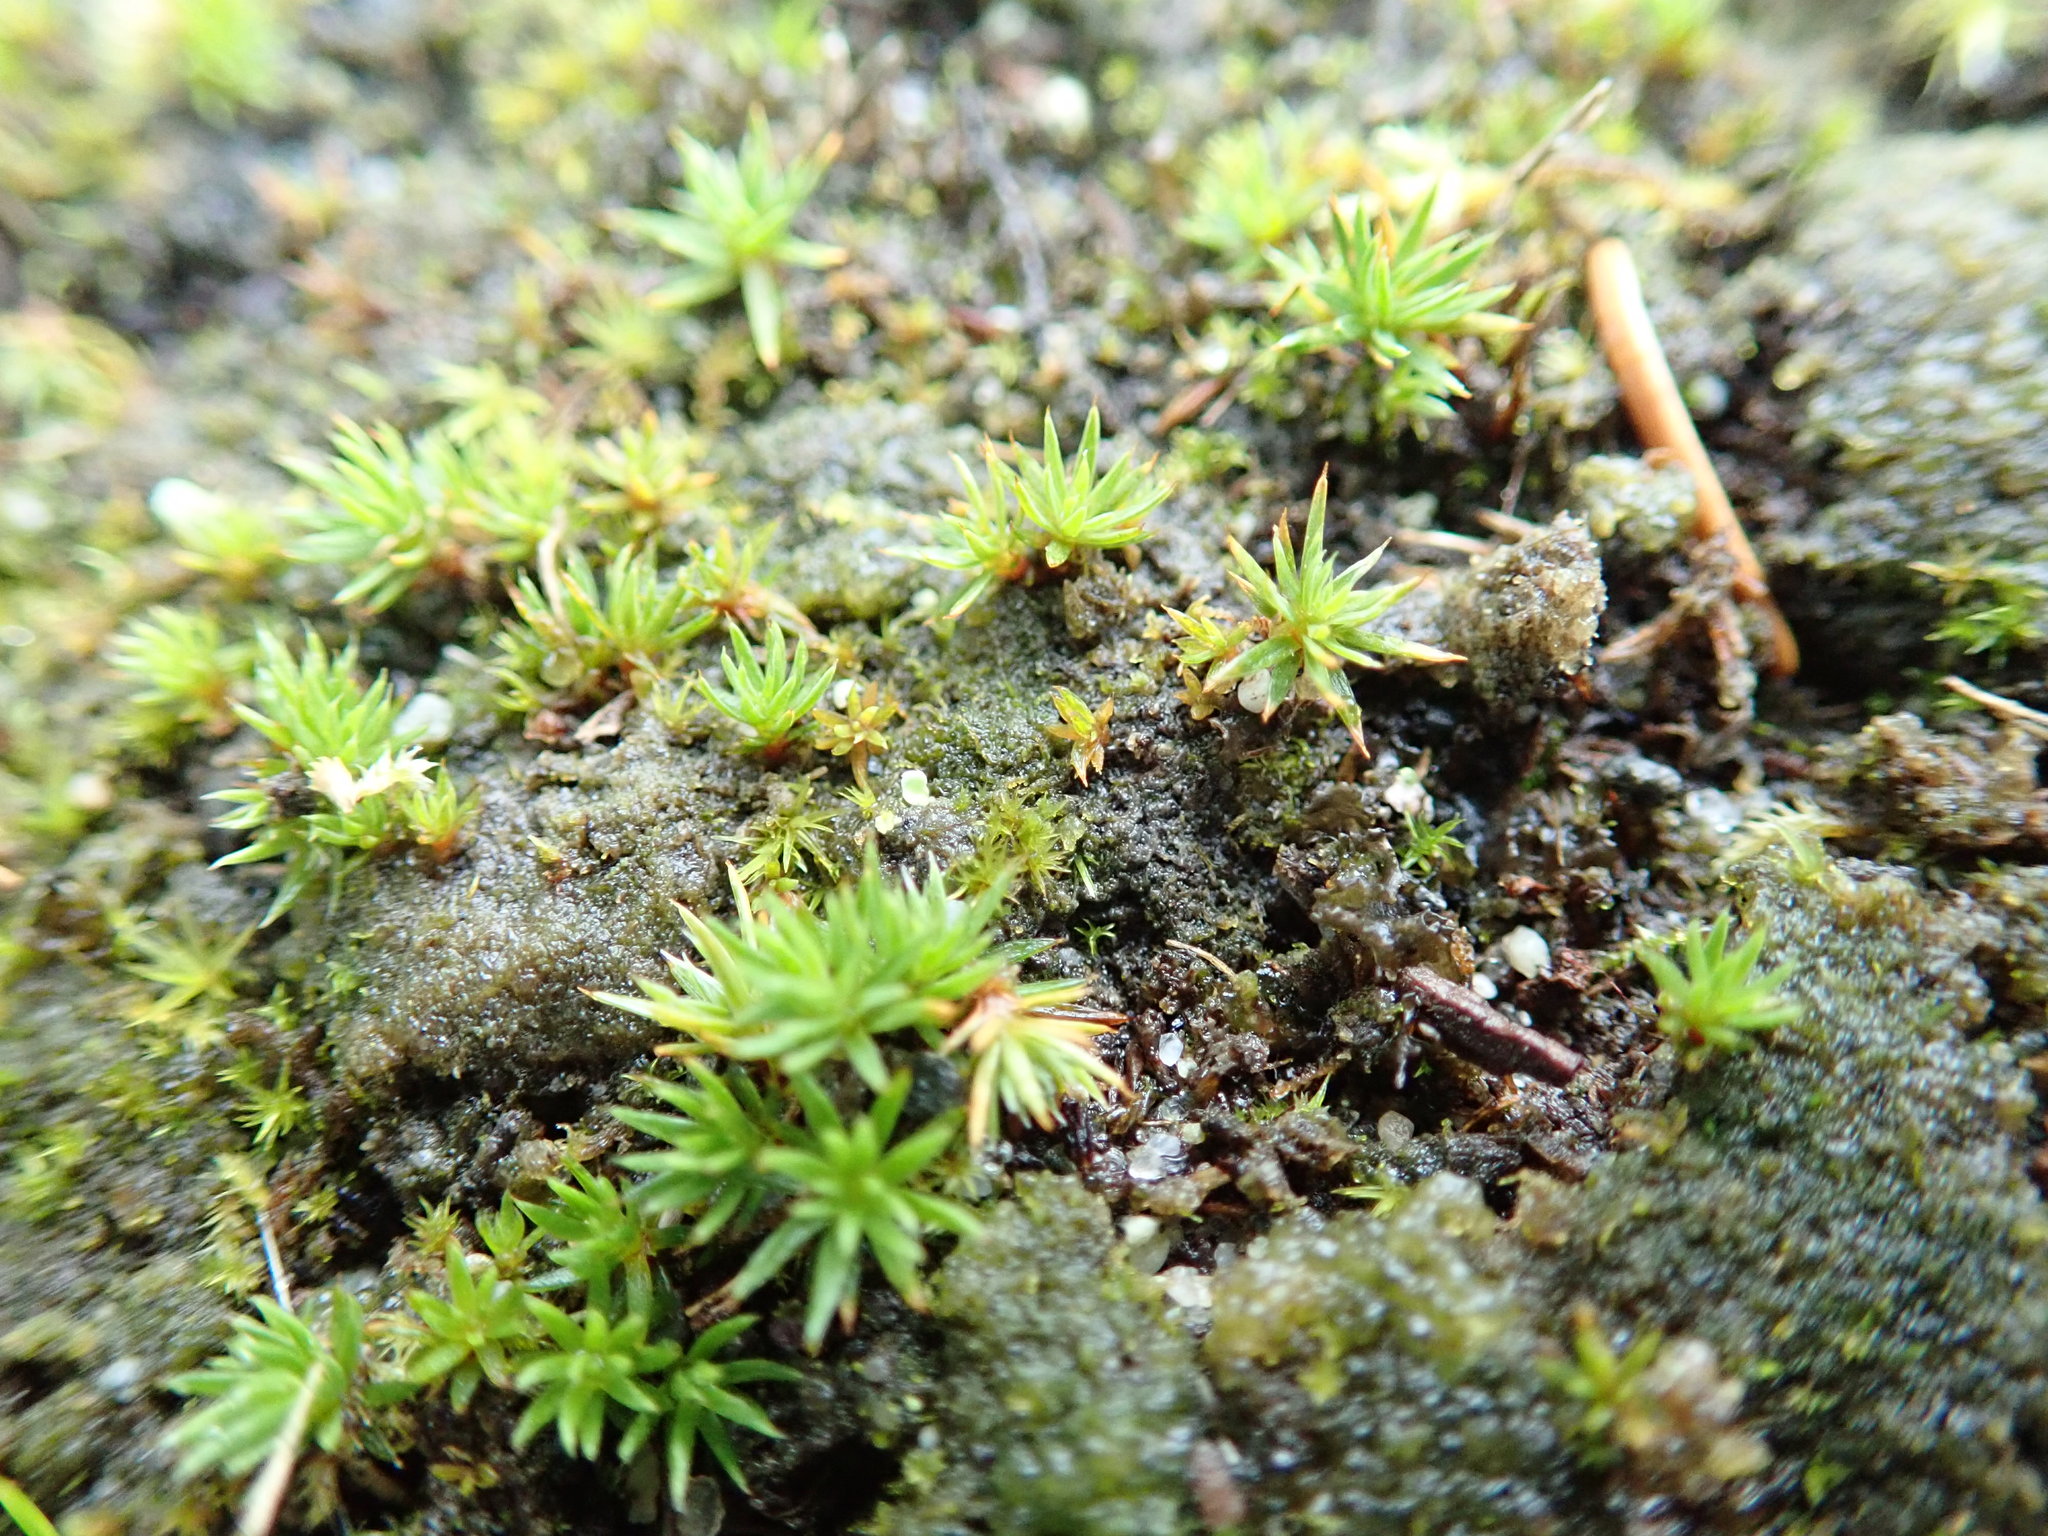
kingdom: Plantae
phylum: Bryophyta
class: Polytrichopsida
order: Polytrichales
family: Polytrichaceae
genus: Polytrichum
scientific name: Polytrichum juniperinum
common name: Juniper haircap moss
